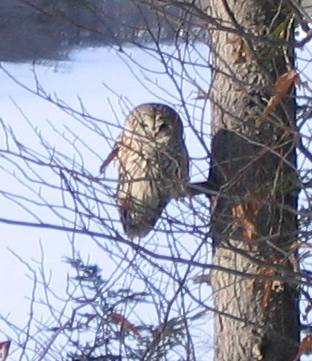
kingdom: Animalia
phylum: Chordata
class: Aves
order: Strigiformes
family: Strigidae
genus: Strix
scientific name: Strix varia
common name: Barred owl
